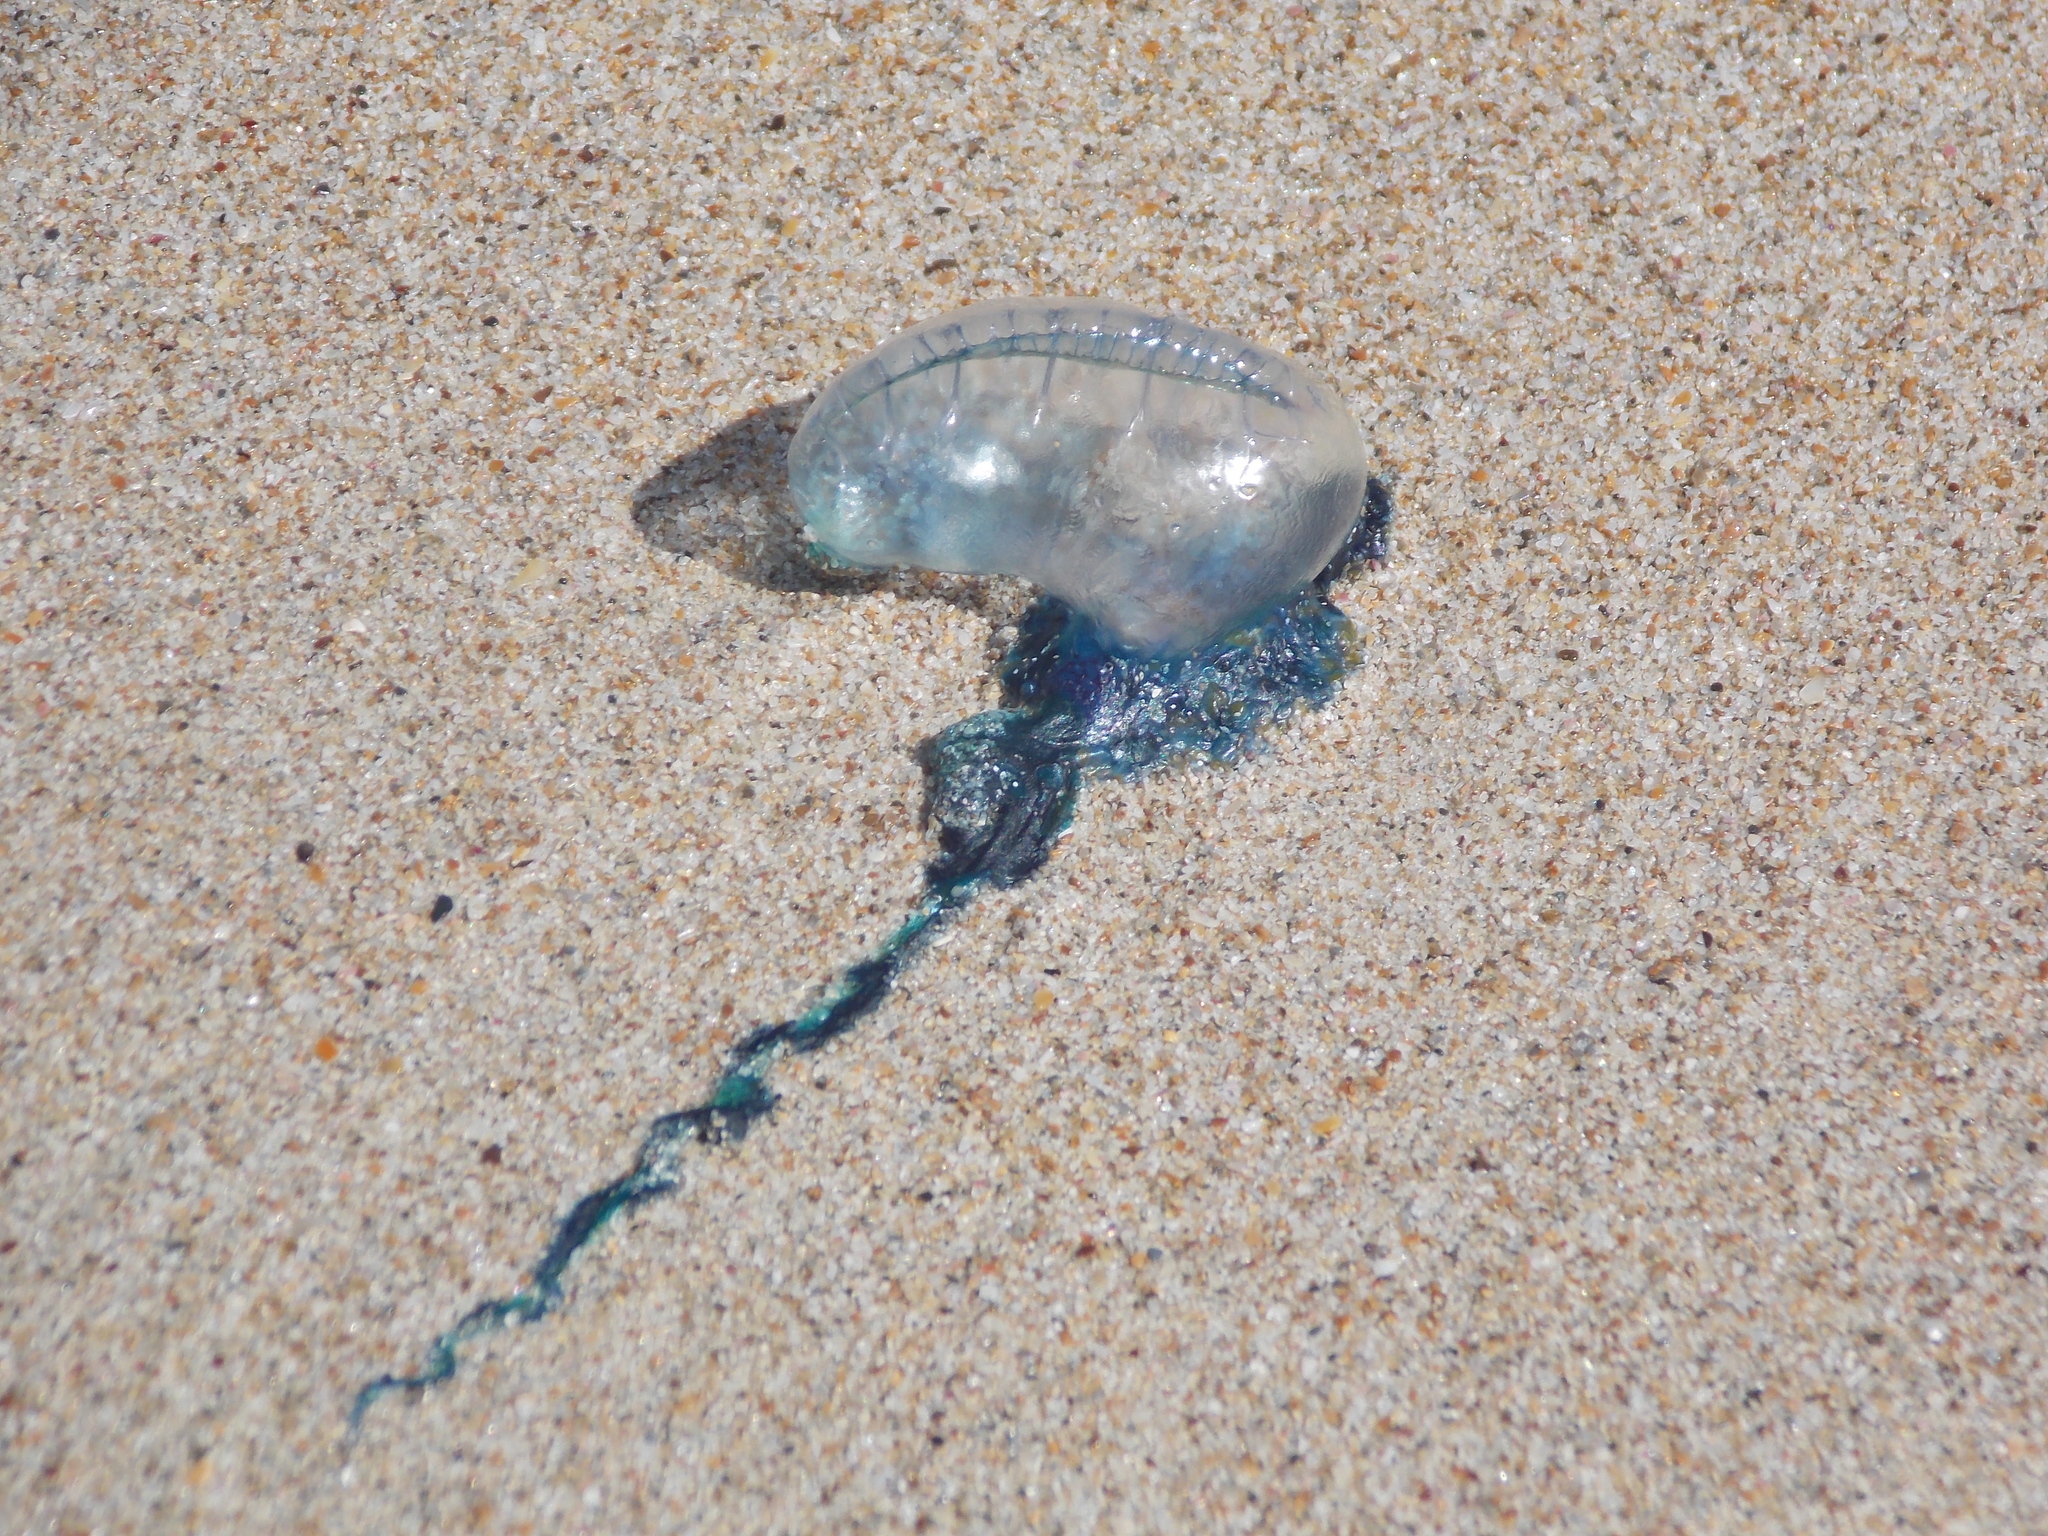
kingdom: Animalia
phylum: Cnidaria
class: Hydrozoa
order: Siphonophorae
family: Physaliidae
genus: Physalia
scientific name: Physalia physalis
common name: Portuguese man-of-war
